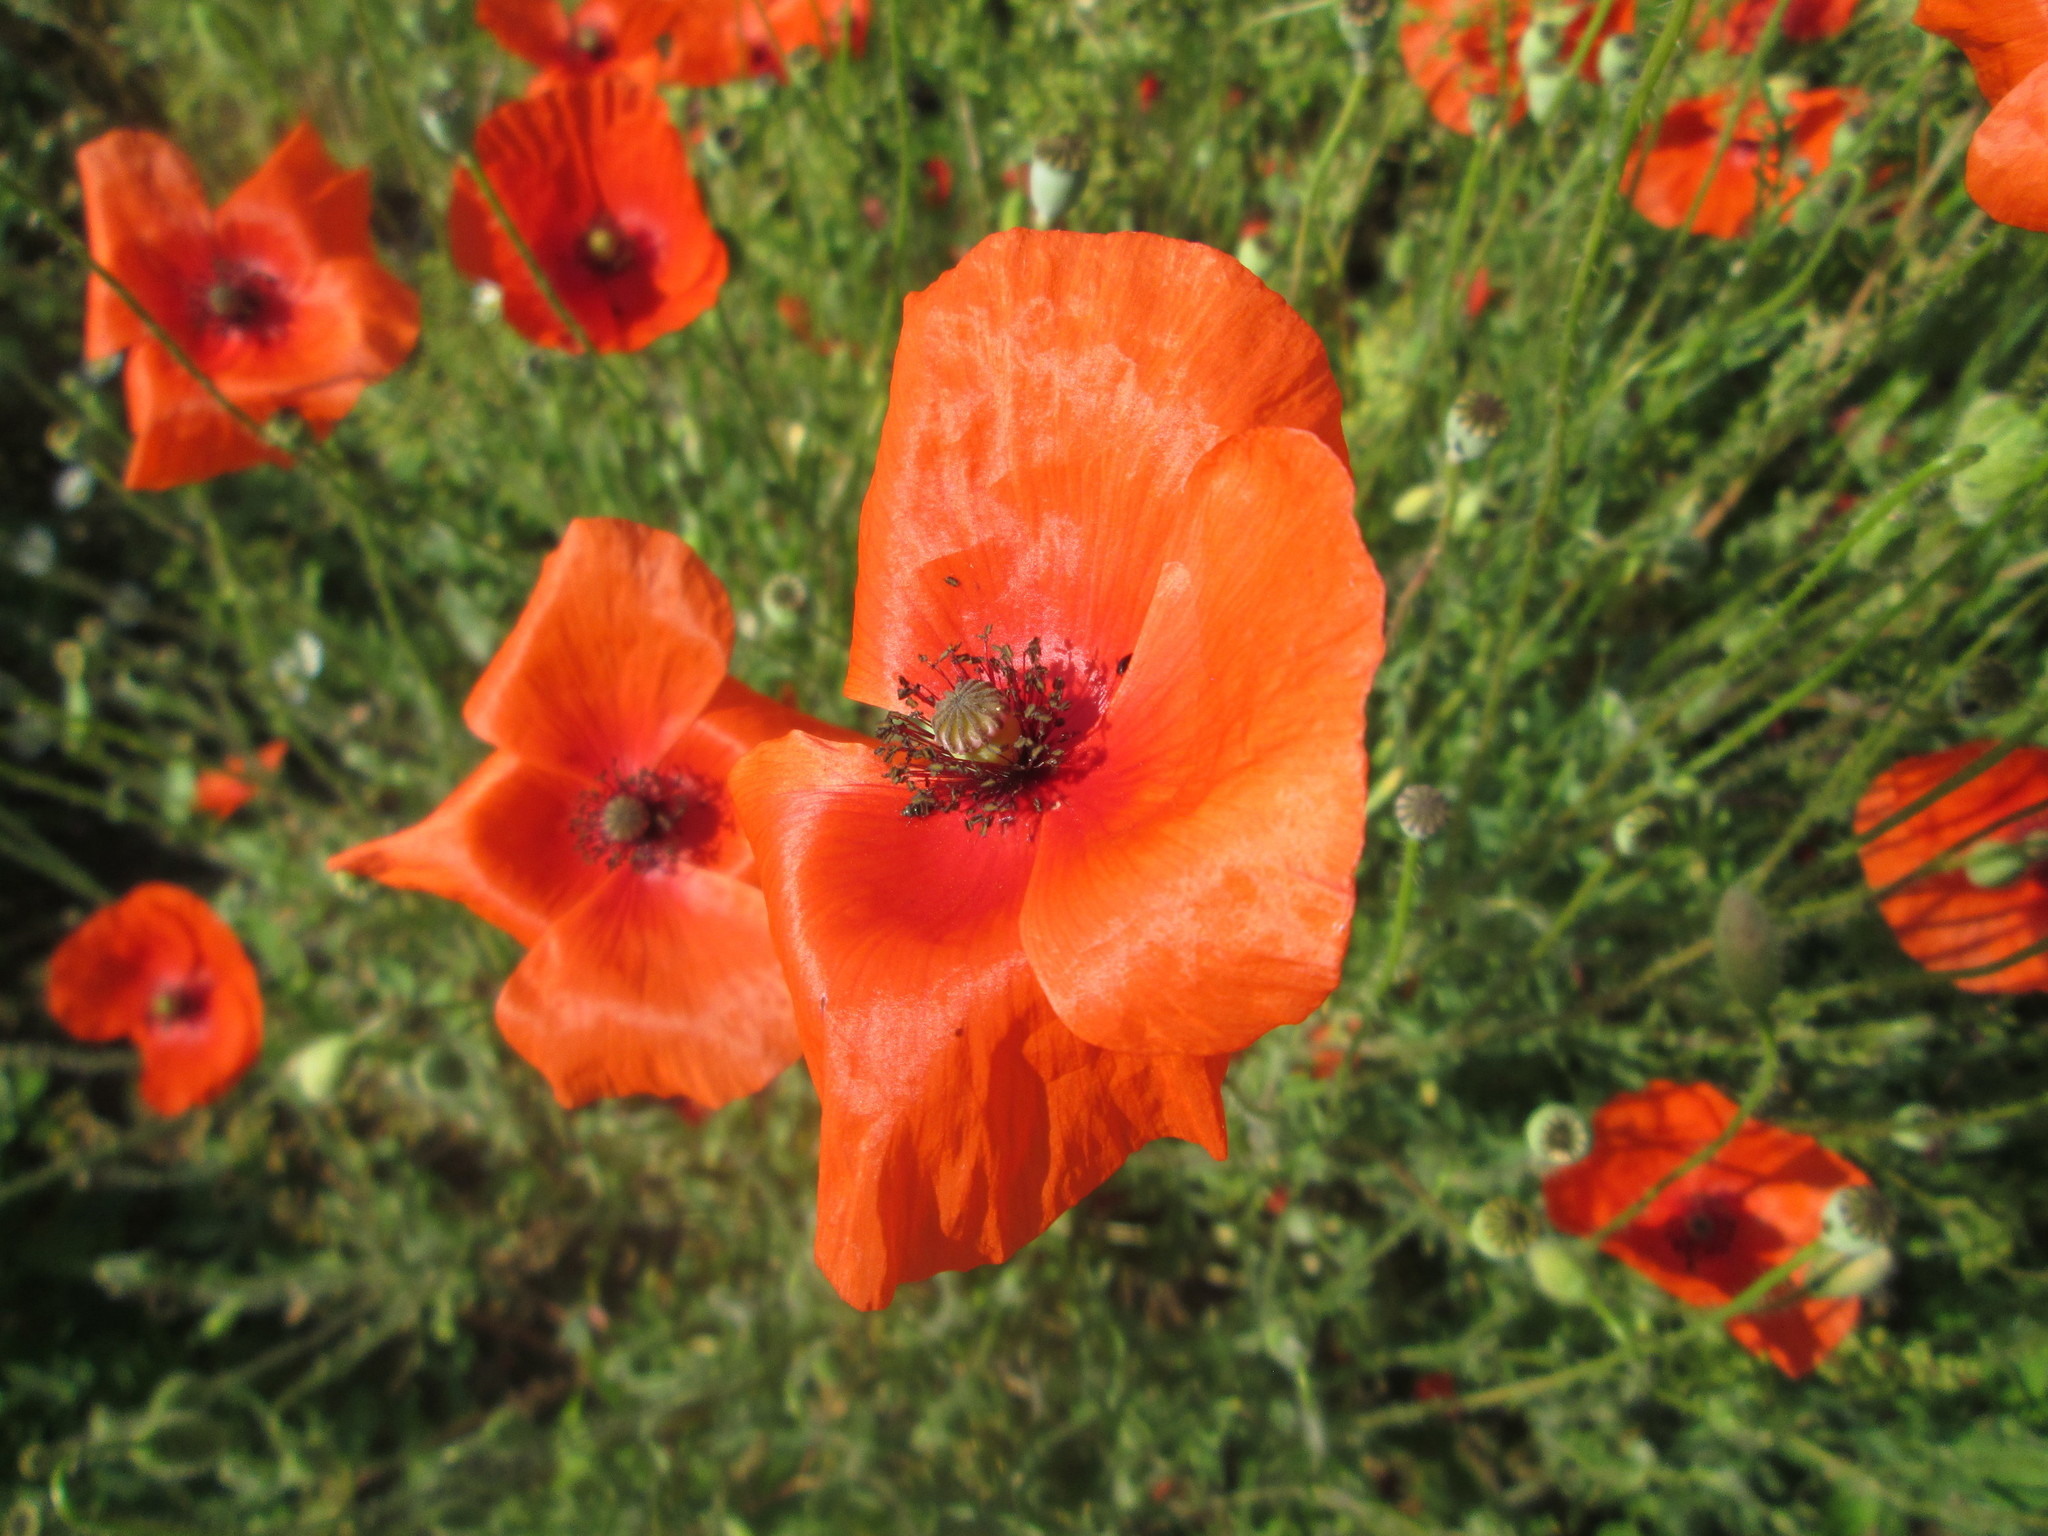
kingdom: Plantae
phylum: Tracheophyta
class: Magnoliopsida
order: Ranunculales
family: Papaveraceae
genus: Papaver
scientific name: Papaver rhoeas
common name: Corn poppy
